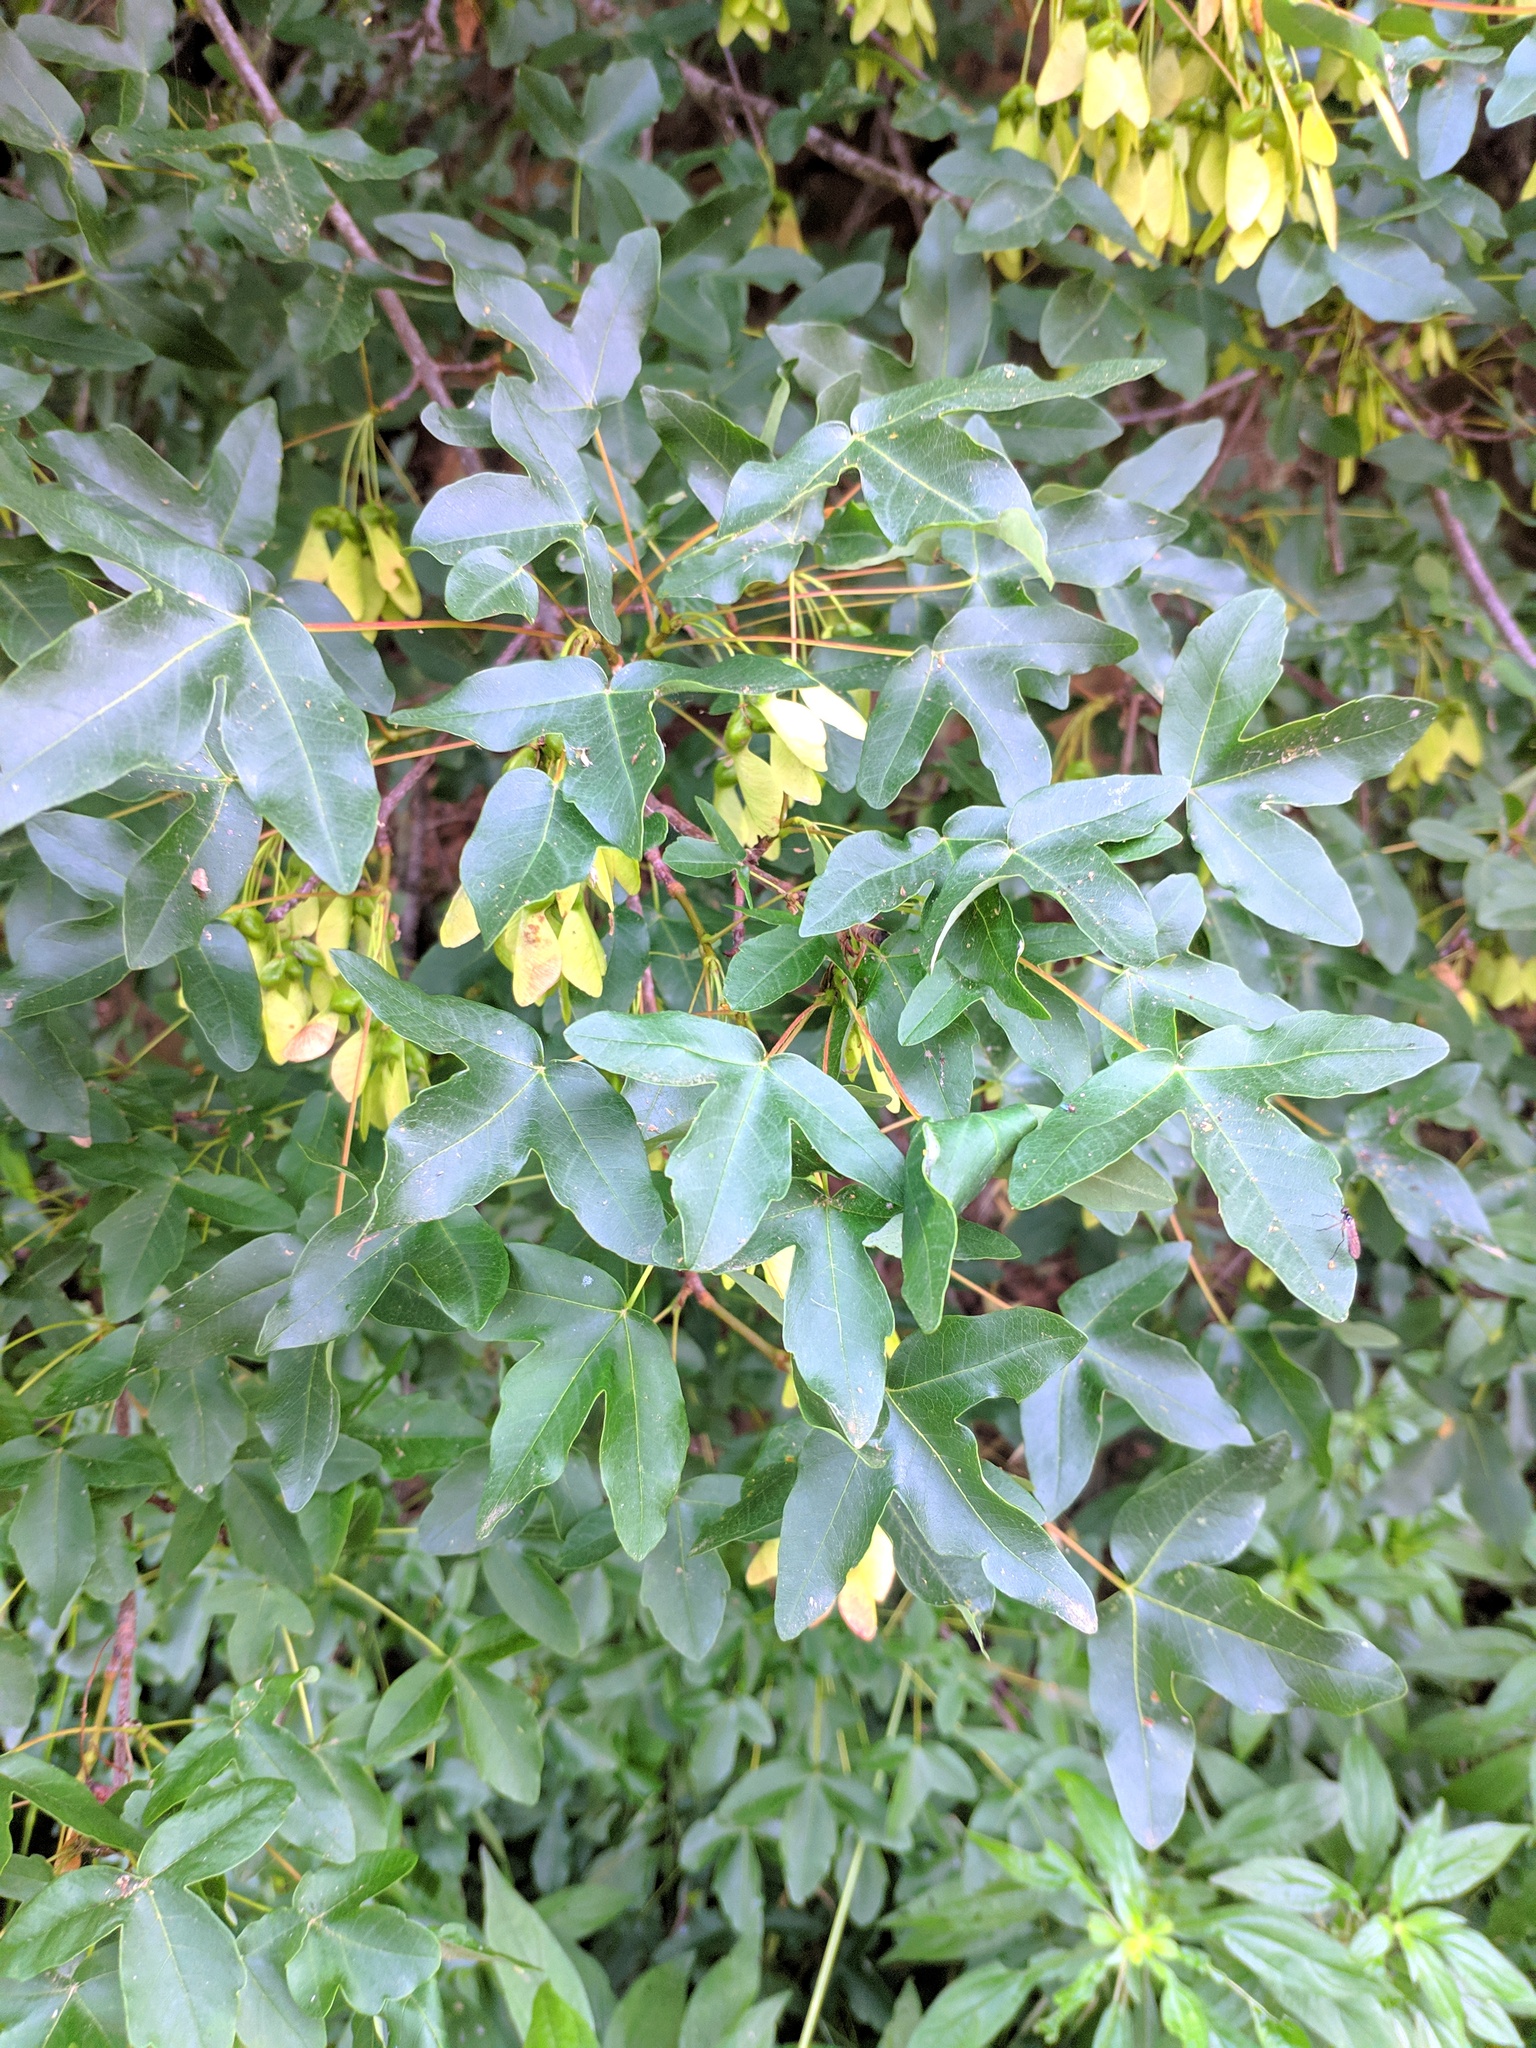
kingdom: Plantae
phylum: Tracheophyta
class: Magnoliopsida
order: Sapindales
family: Sapindaceae
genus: Acer
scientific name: Acer monspessulanum
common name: Montpellier maple
